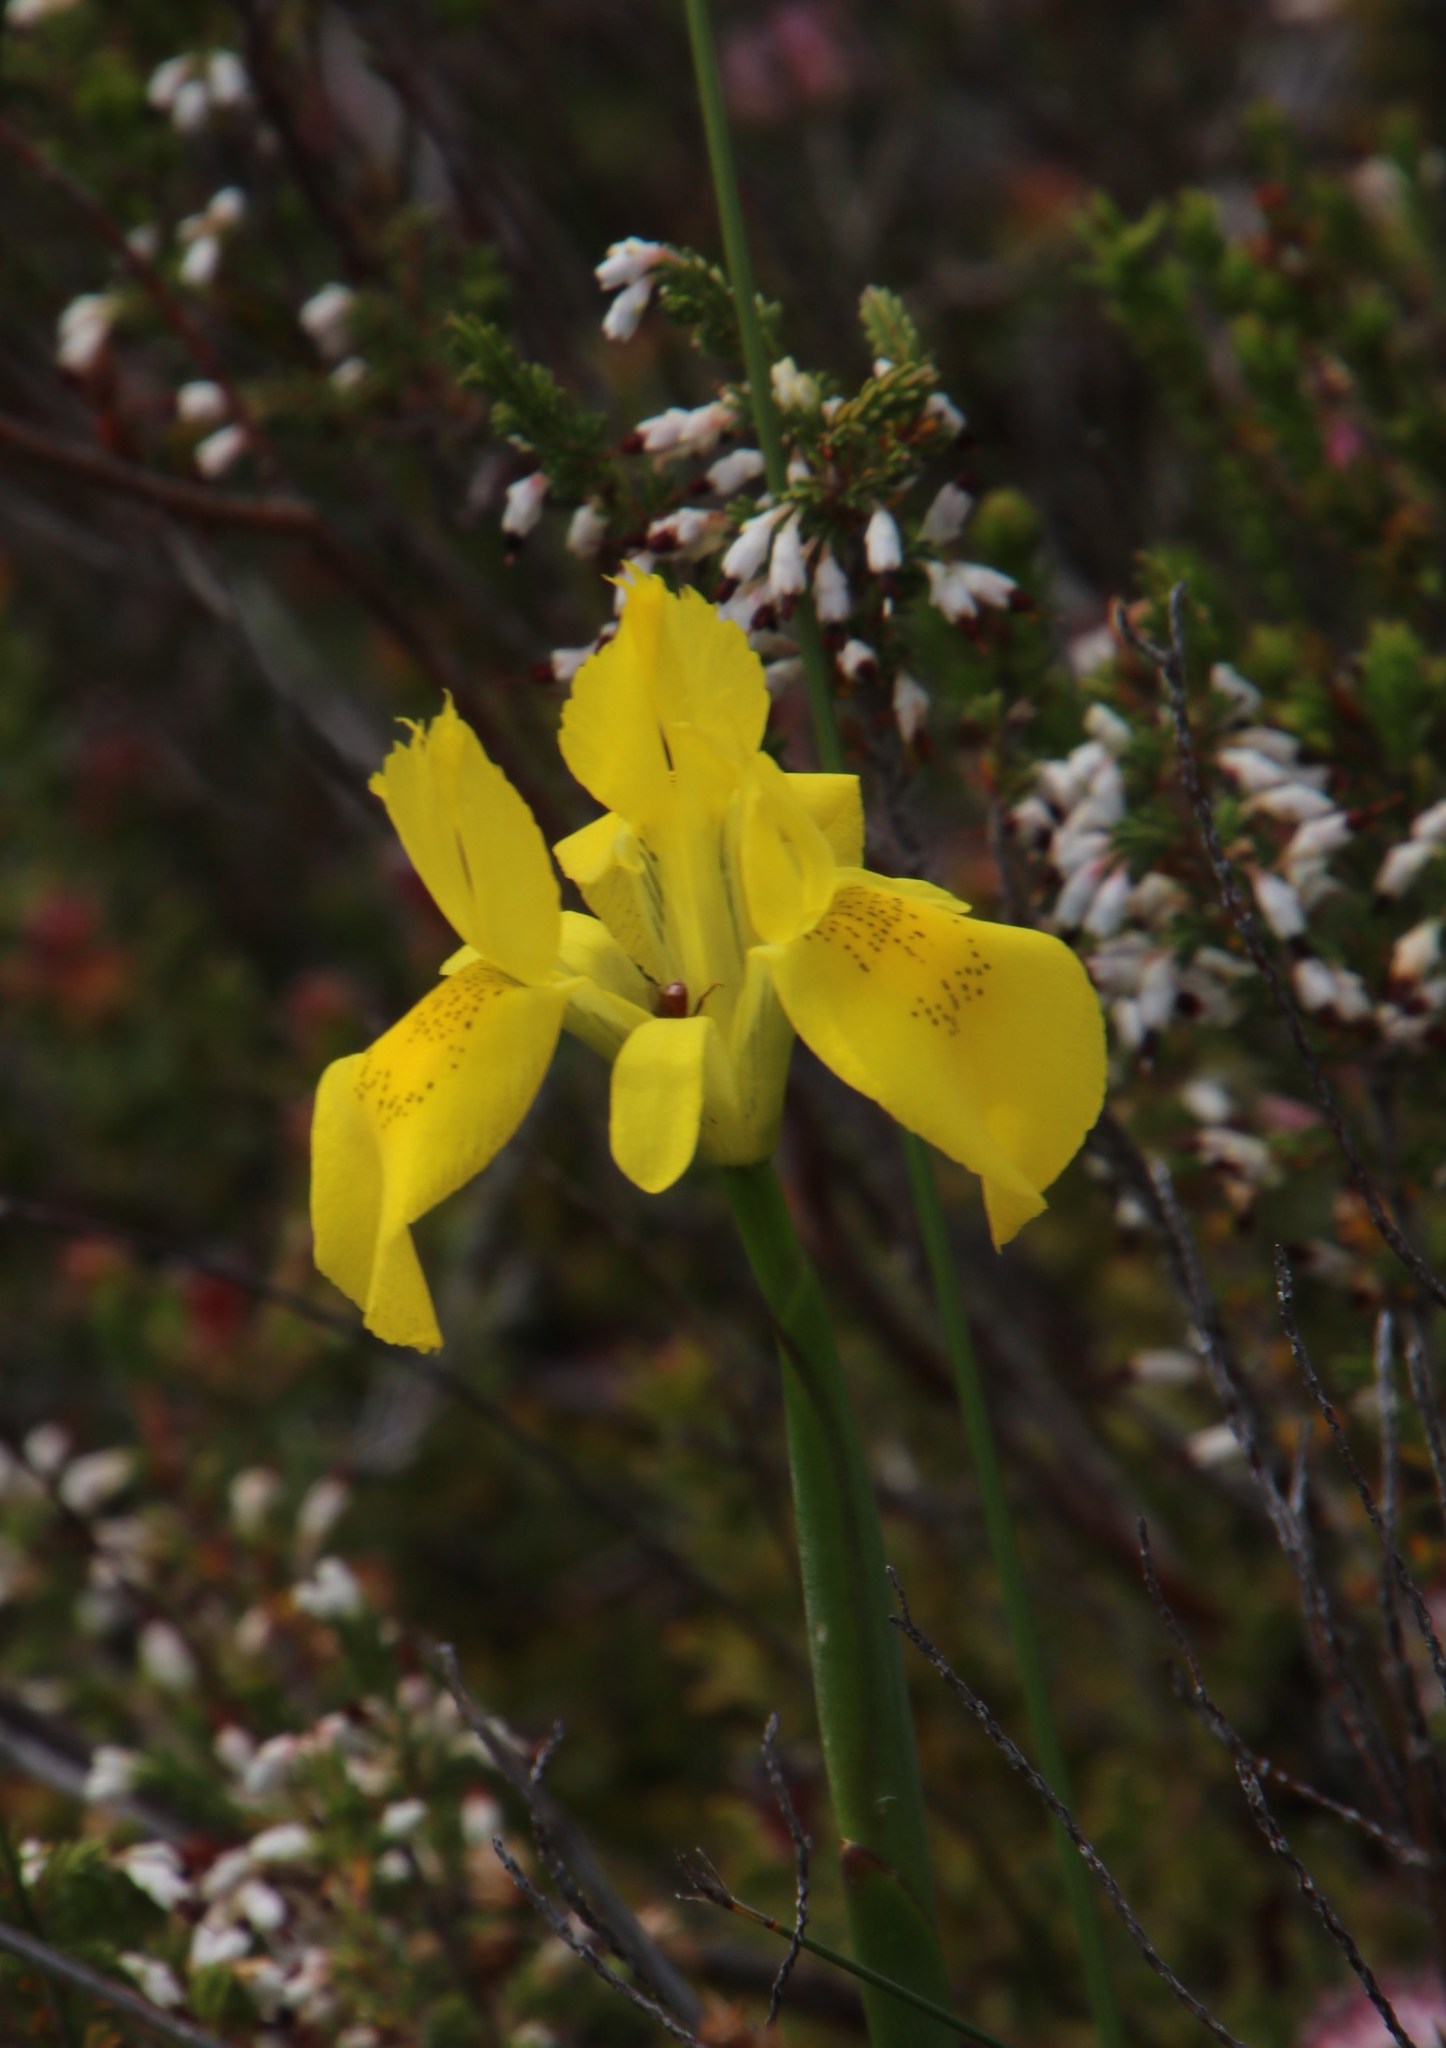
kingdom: Plantae
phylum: Tracheophyta
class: Liliopsida
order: Asparagales
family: Iridaceae
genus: Moraea
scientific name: Moraea neglecta
